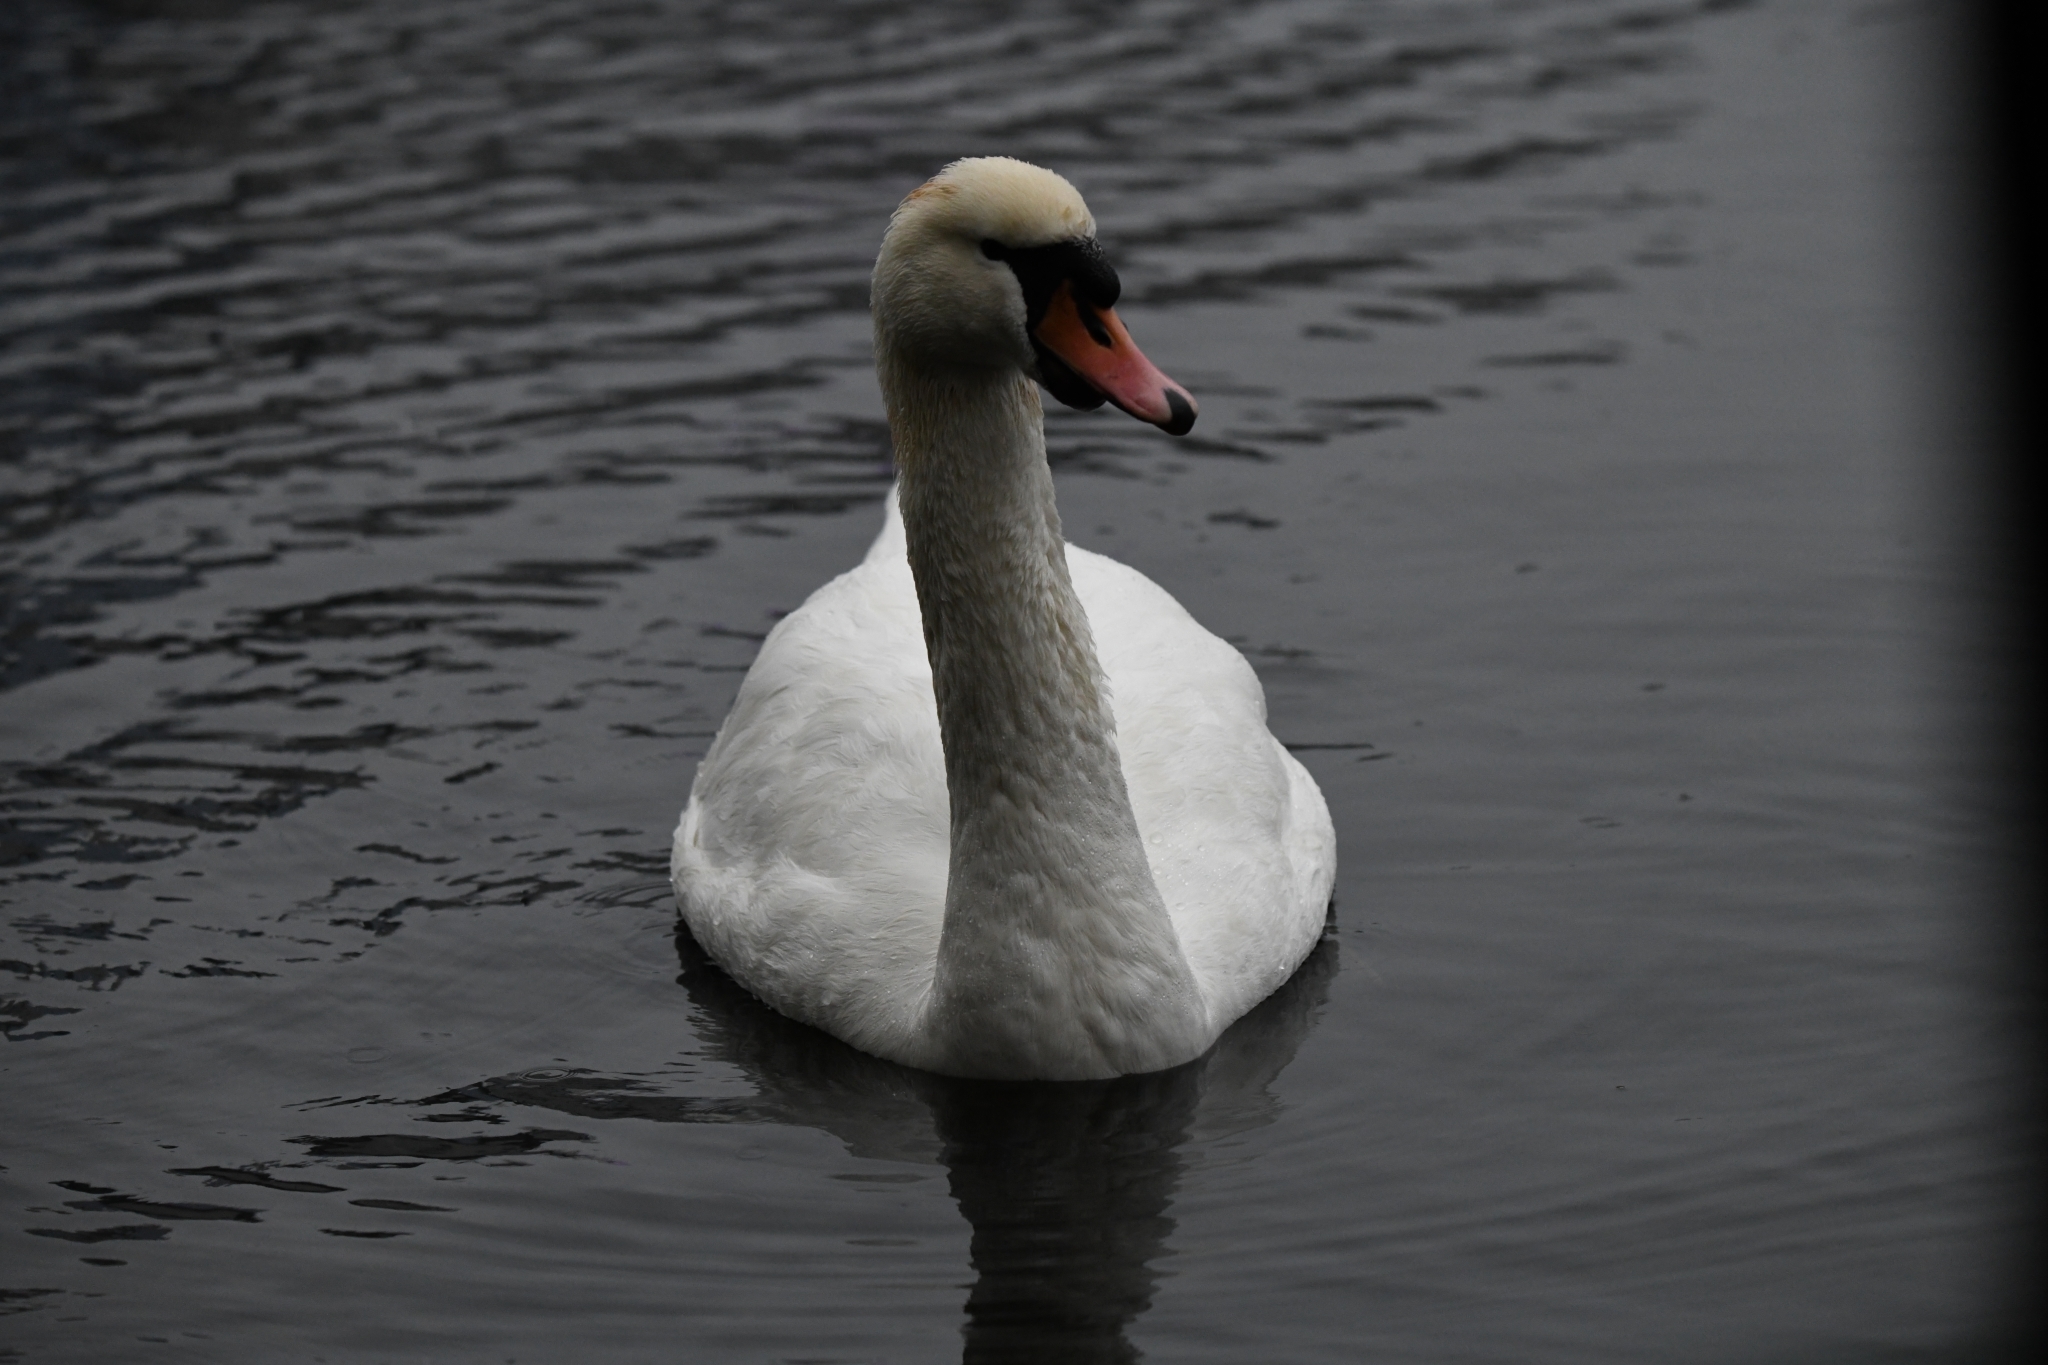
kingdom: Animalia
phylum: Chordata
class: Aves
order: Anseriformes
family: Anatidae
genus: Cygnus
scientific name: Cygnus olor
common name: Mute swan
